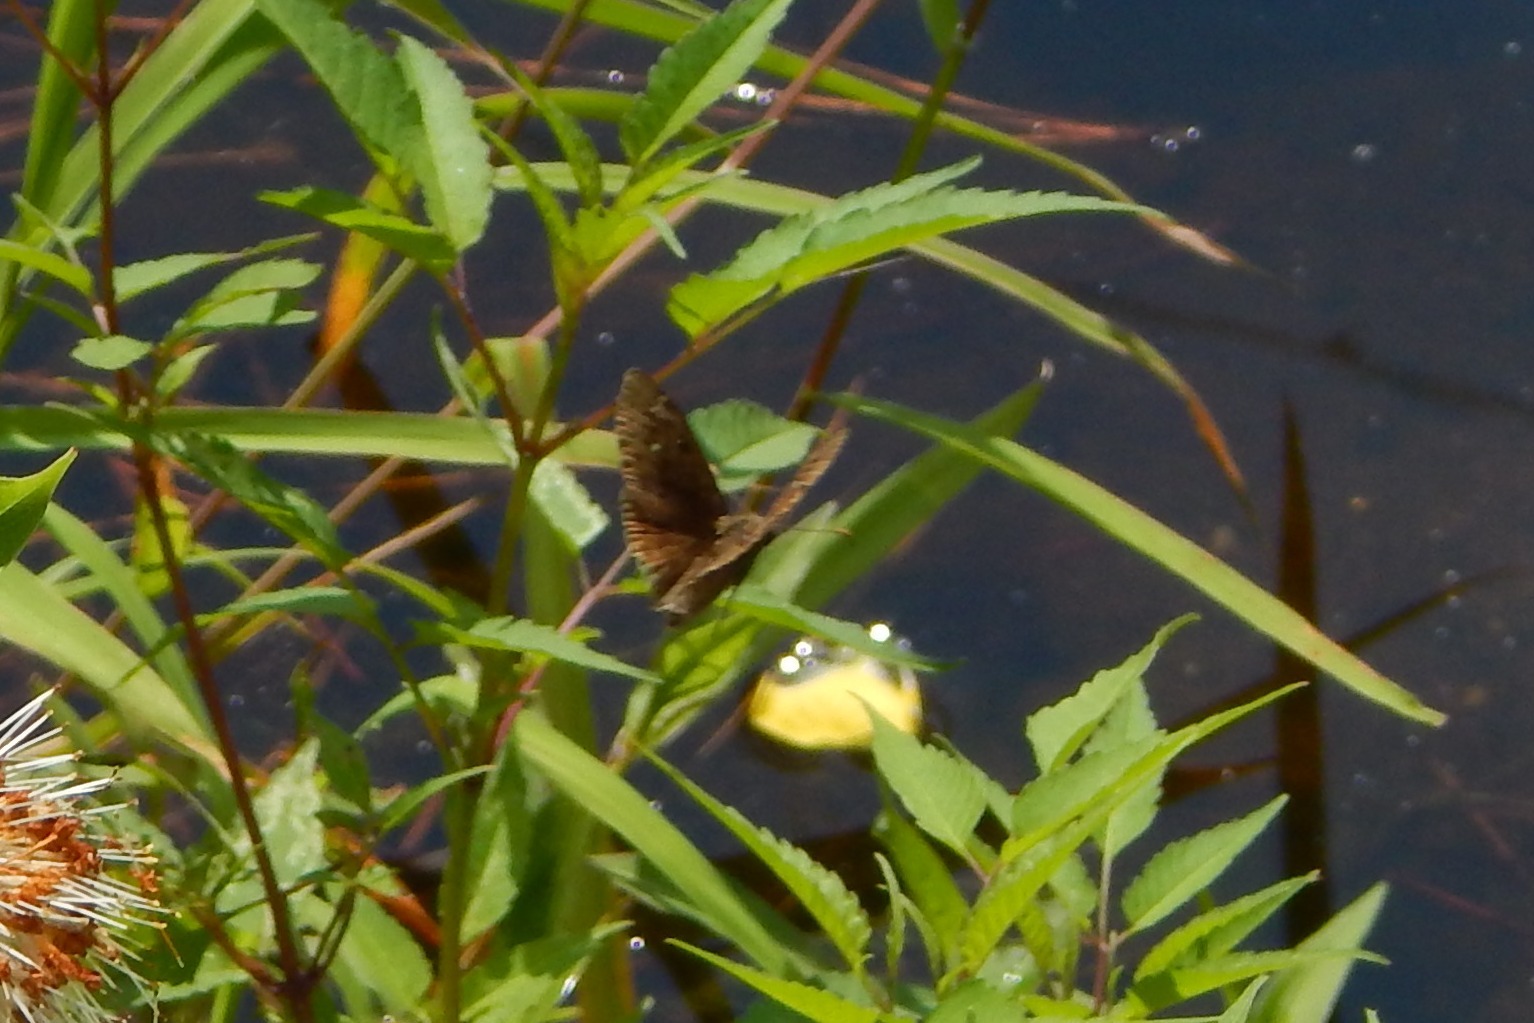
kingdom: Animalia
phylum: Arthropoda
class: Insecta
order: Lepidoptera
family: Hesperiidae
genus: Erynnis
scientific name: Erynnis horatius
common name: Horace's duskywing
